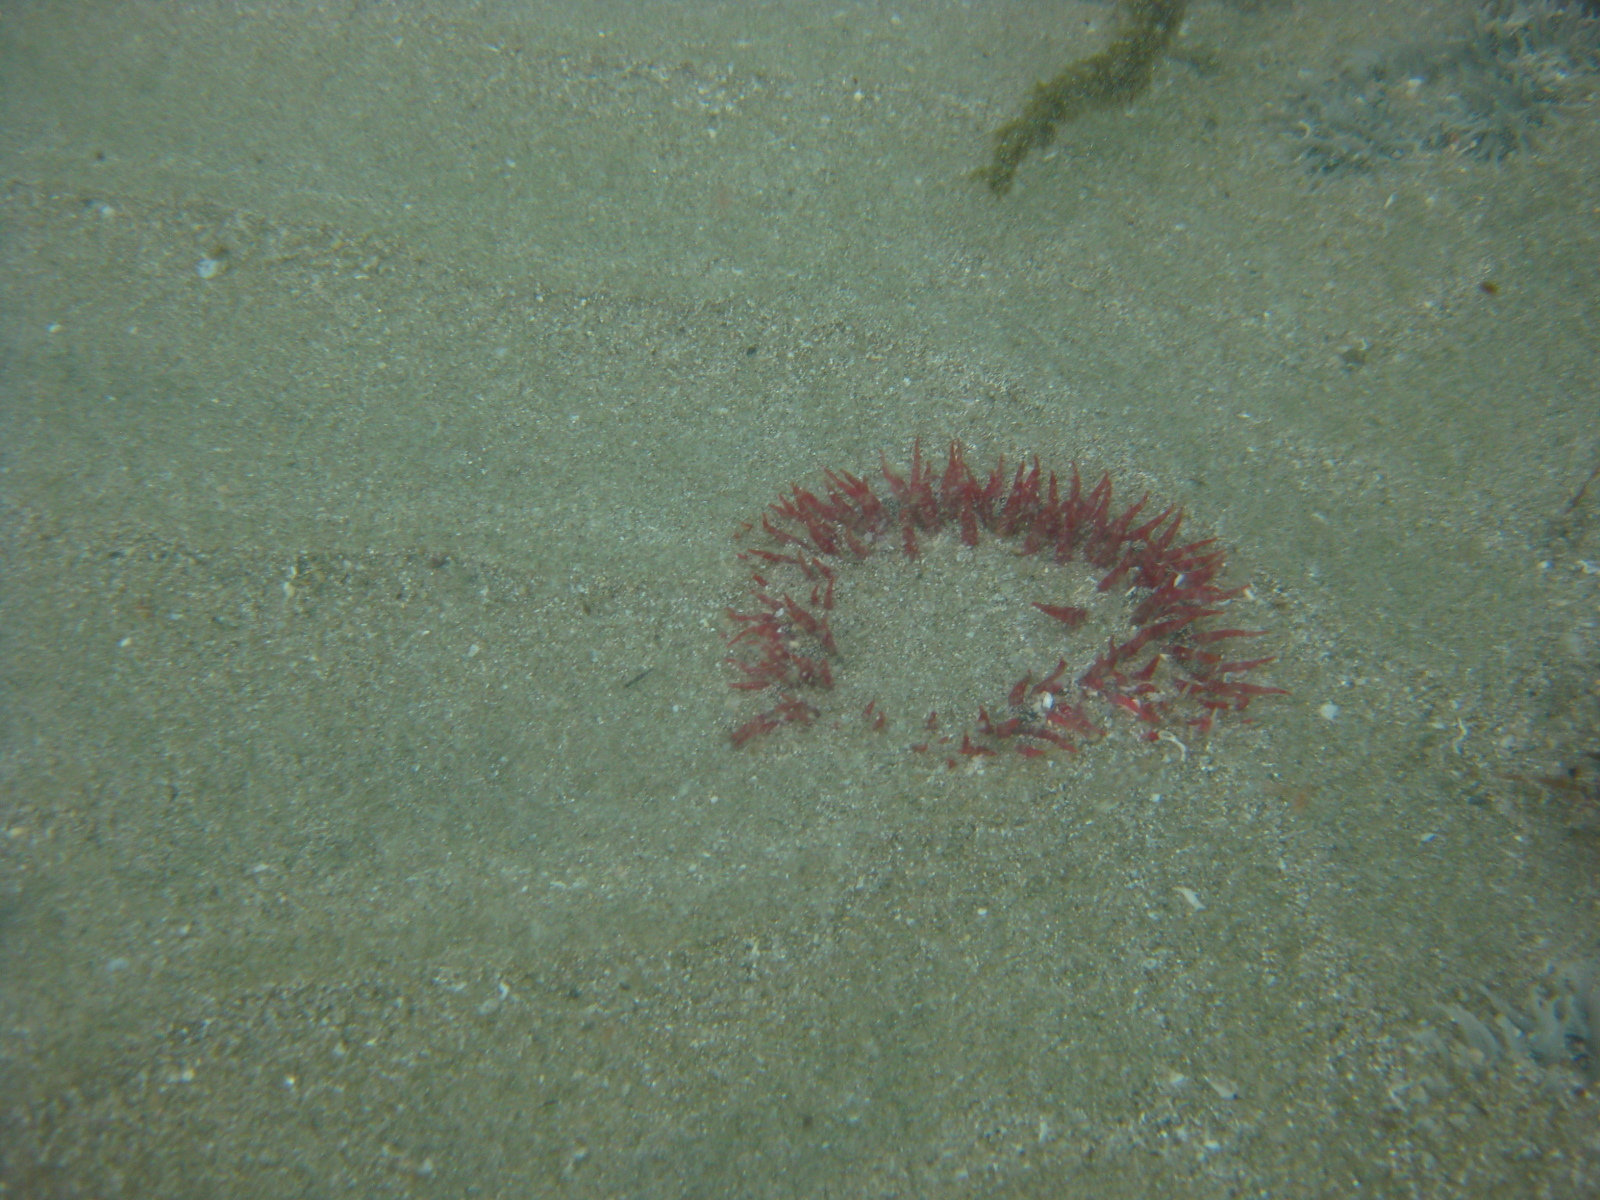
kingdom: Animalia
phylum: Cnidaria
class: Anthozoa
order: Actiniaria
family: Actiniidae
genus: Oulactis
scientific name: Oulactis magna
